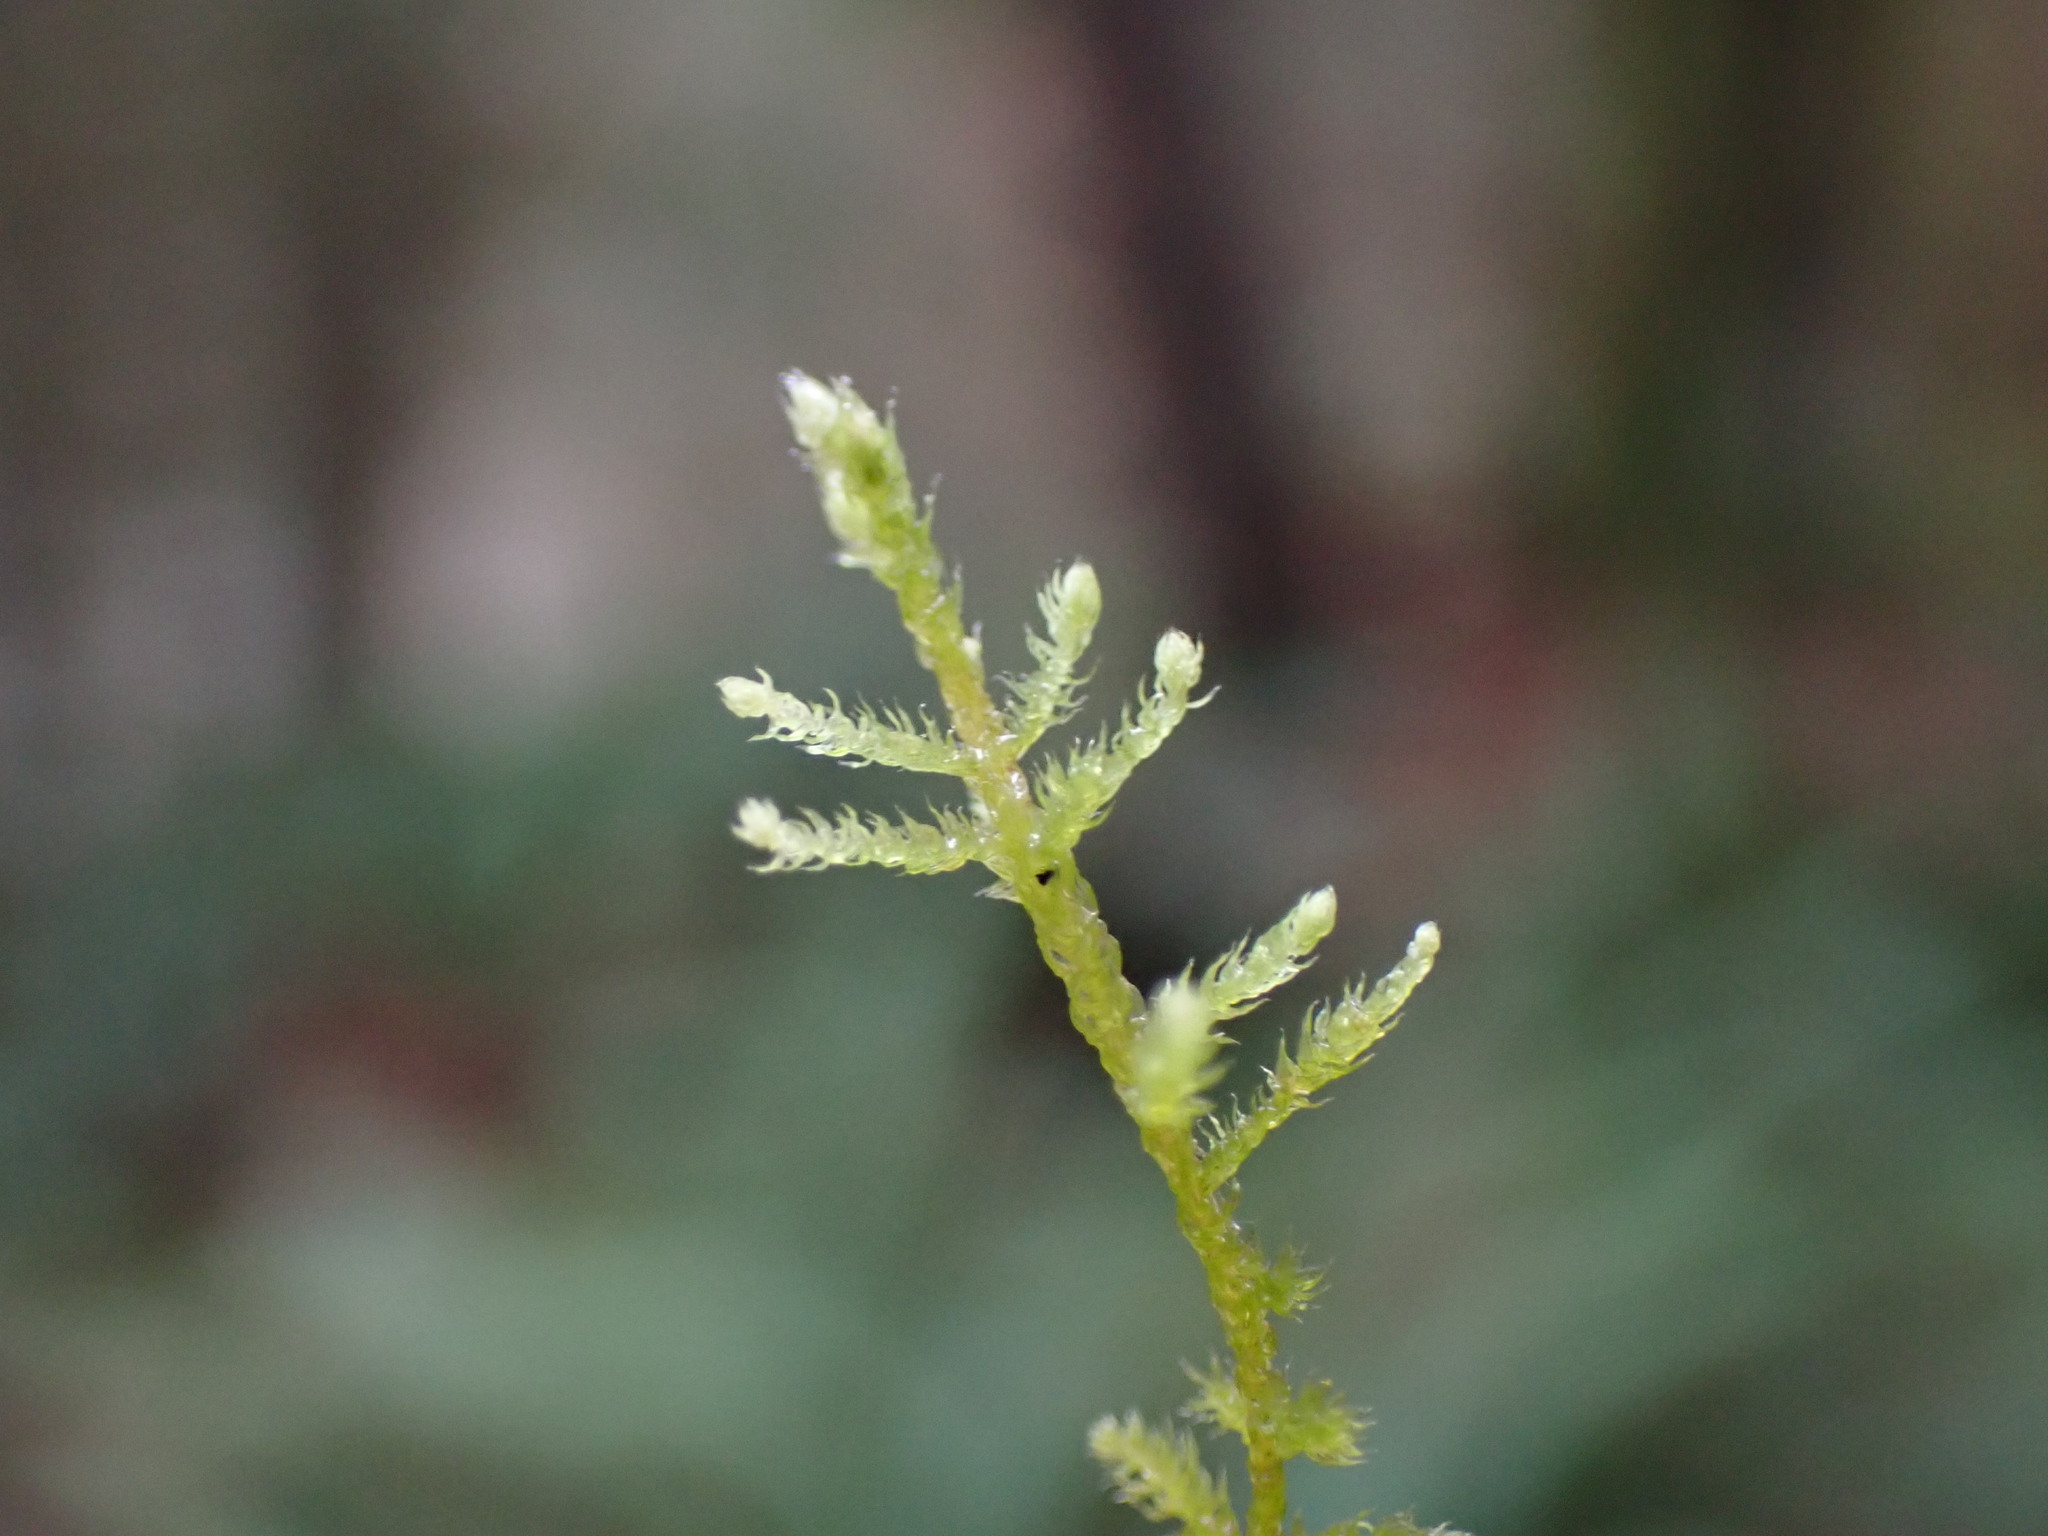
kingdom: Plantae
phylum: Bryophyta
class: Bryopsida
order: Hypnales
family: Brachytheciaceae
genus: Claopodium
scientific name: Claopodium crispifolium
